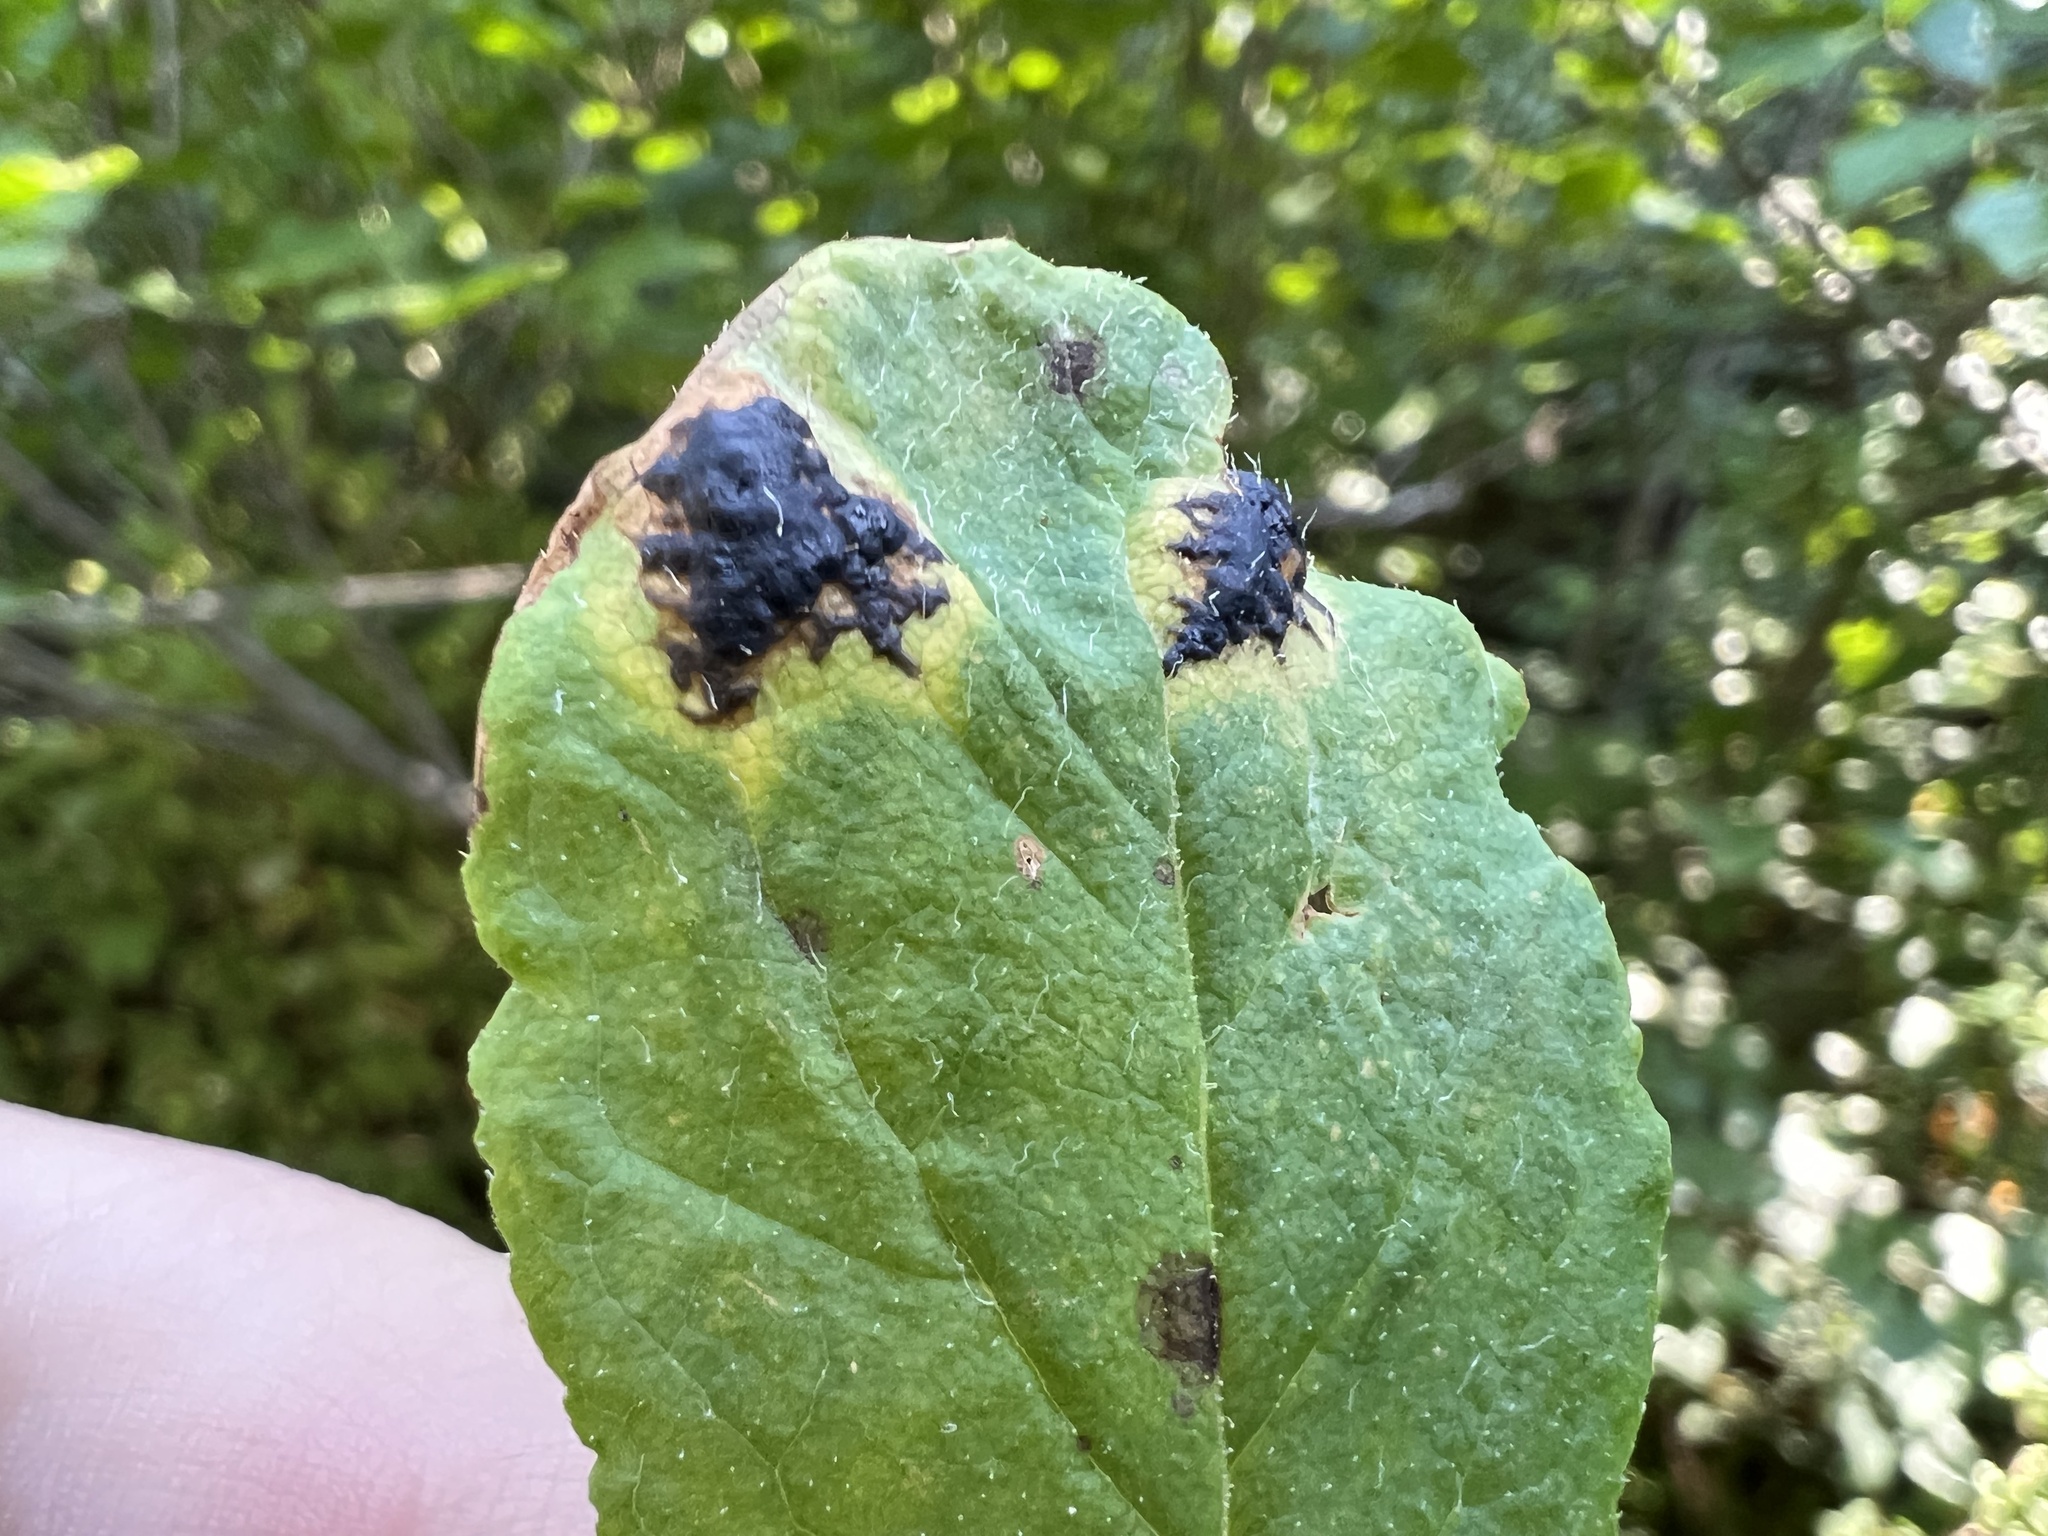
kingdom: Fungi
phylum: Ascomycota
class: Leotiomycetes
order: Rhytismatales
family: Rhytismataceae
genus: Rhytisma
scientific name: Rhytisma
